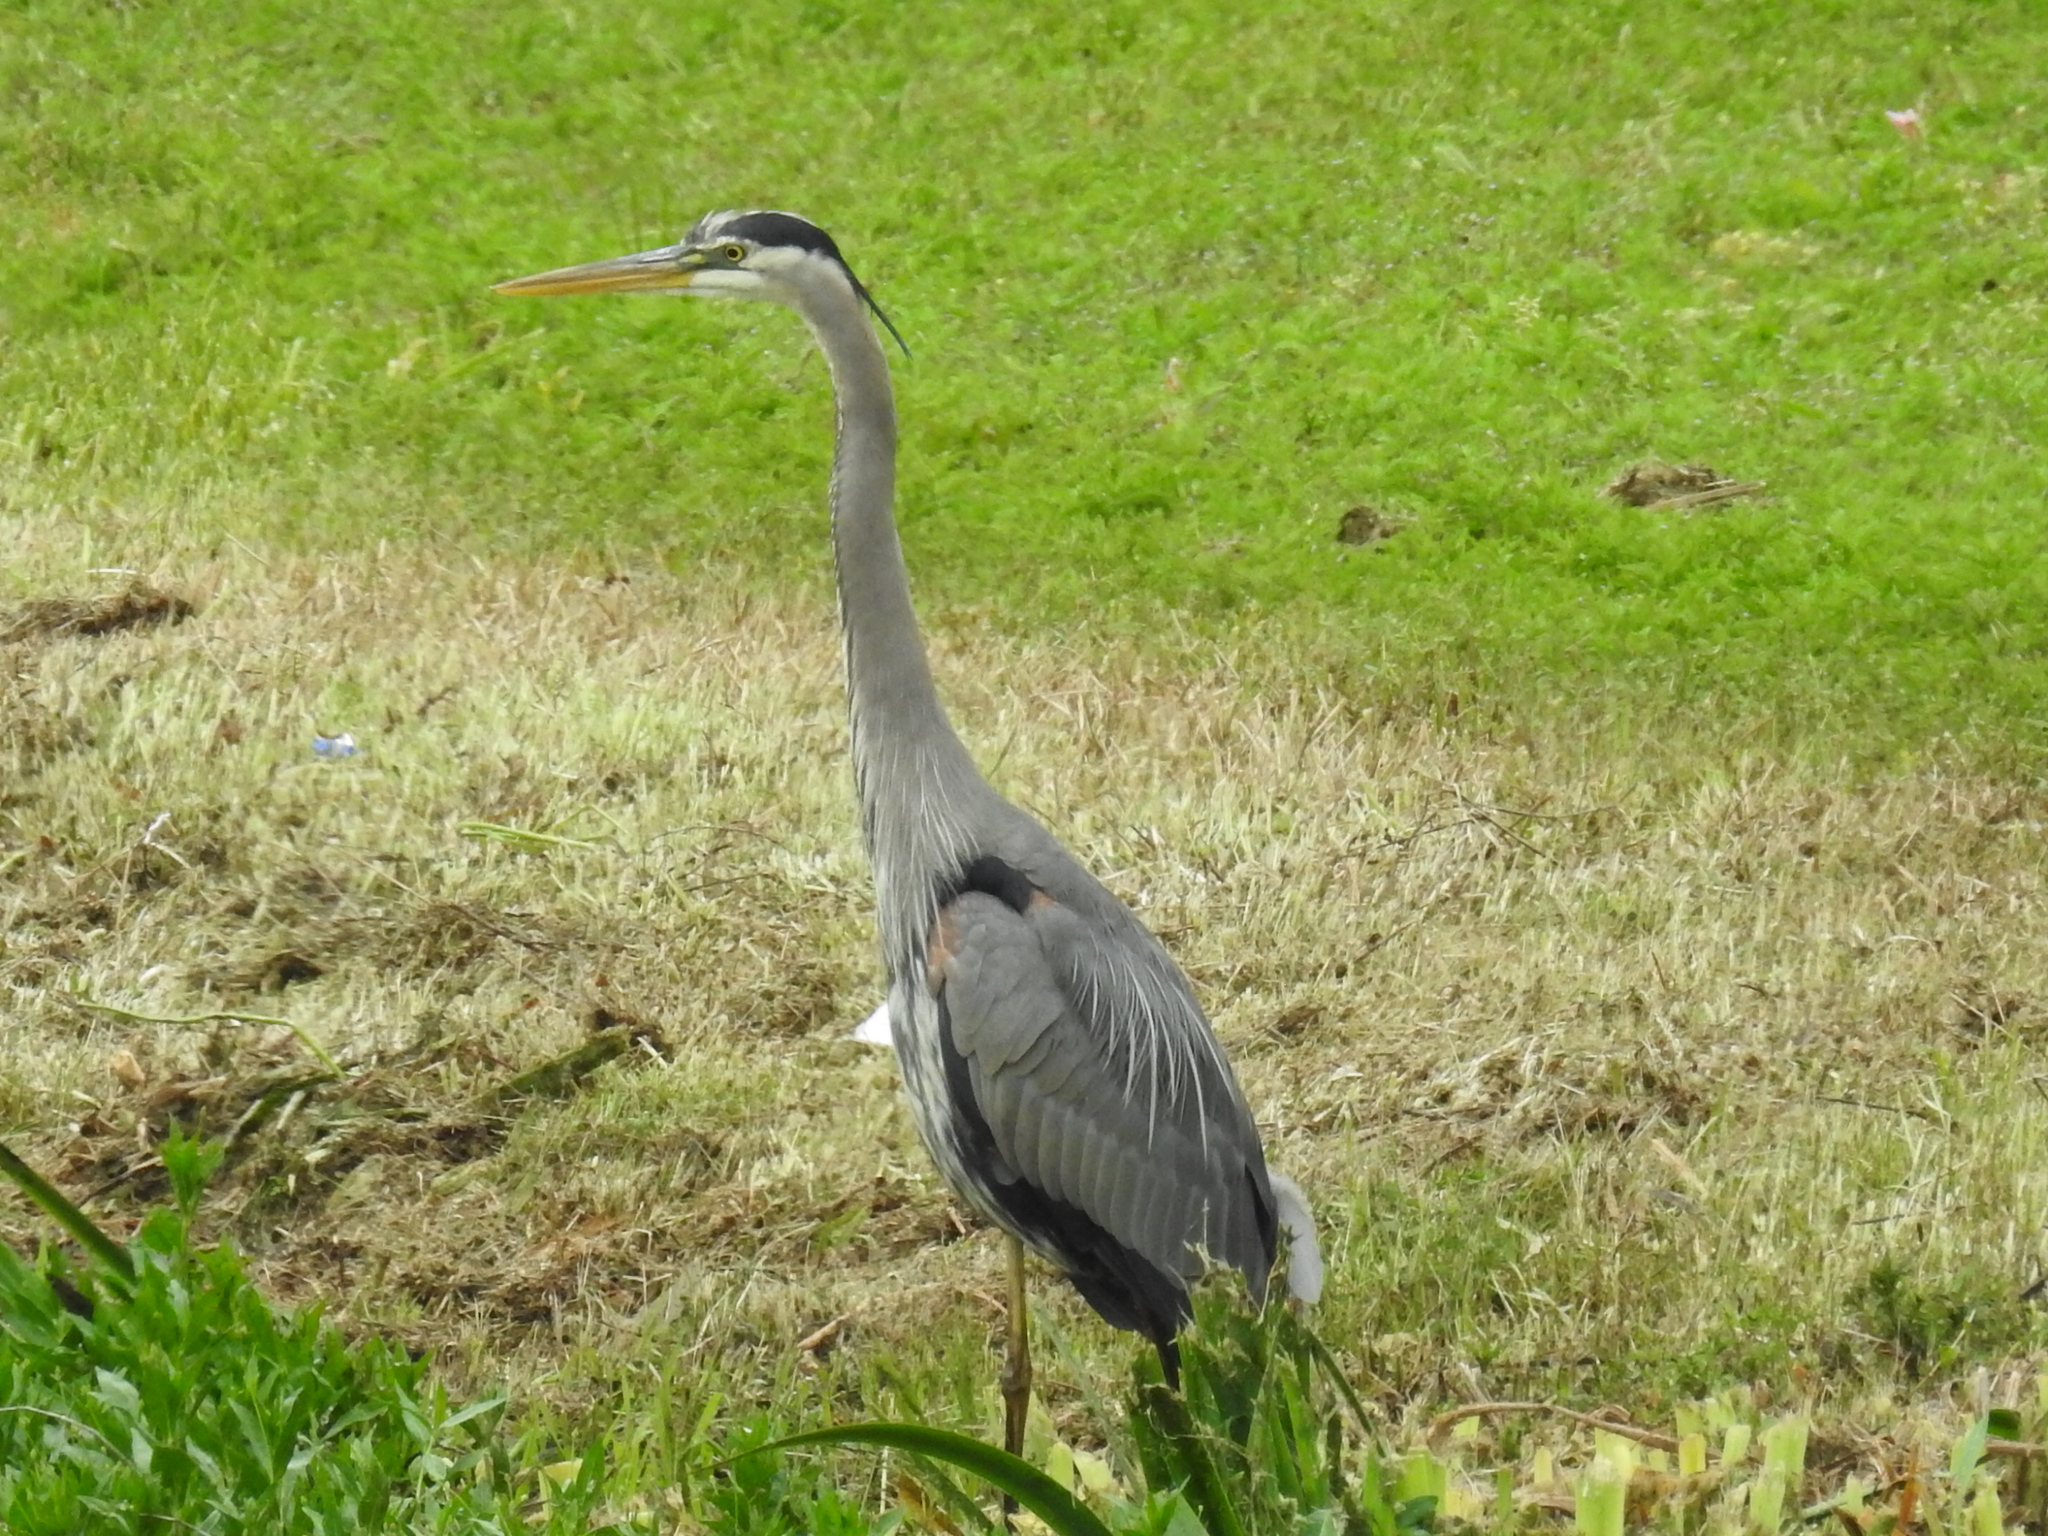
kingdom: Animalia
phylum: Chordata
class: Aves
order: Pelecaniformes
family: Ardeidae
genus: Ardea
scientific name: Ardea herodias
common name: Great blue heron
